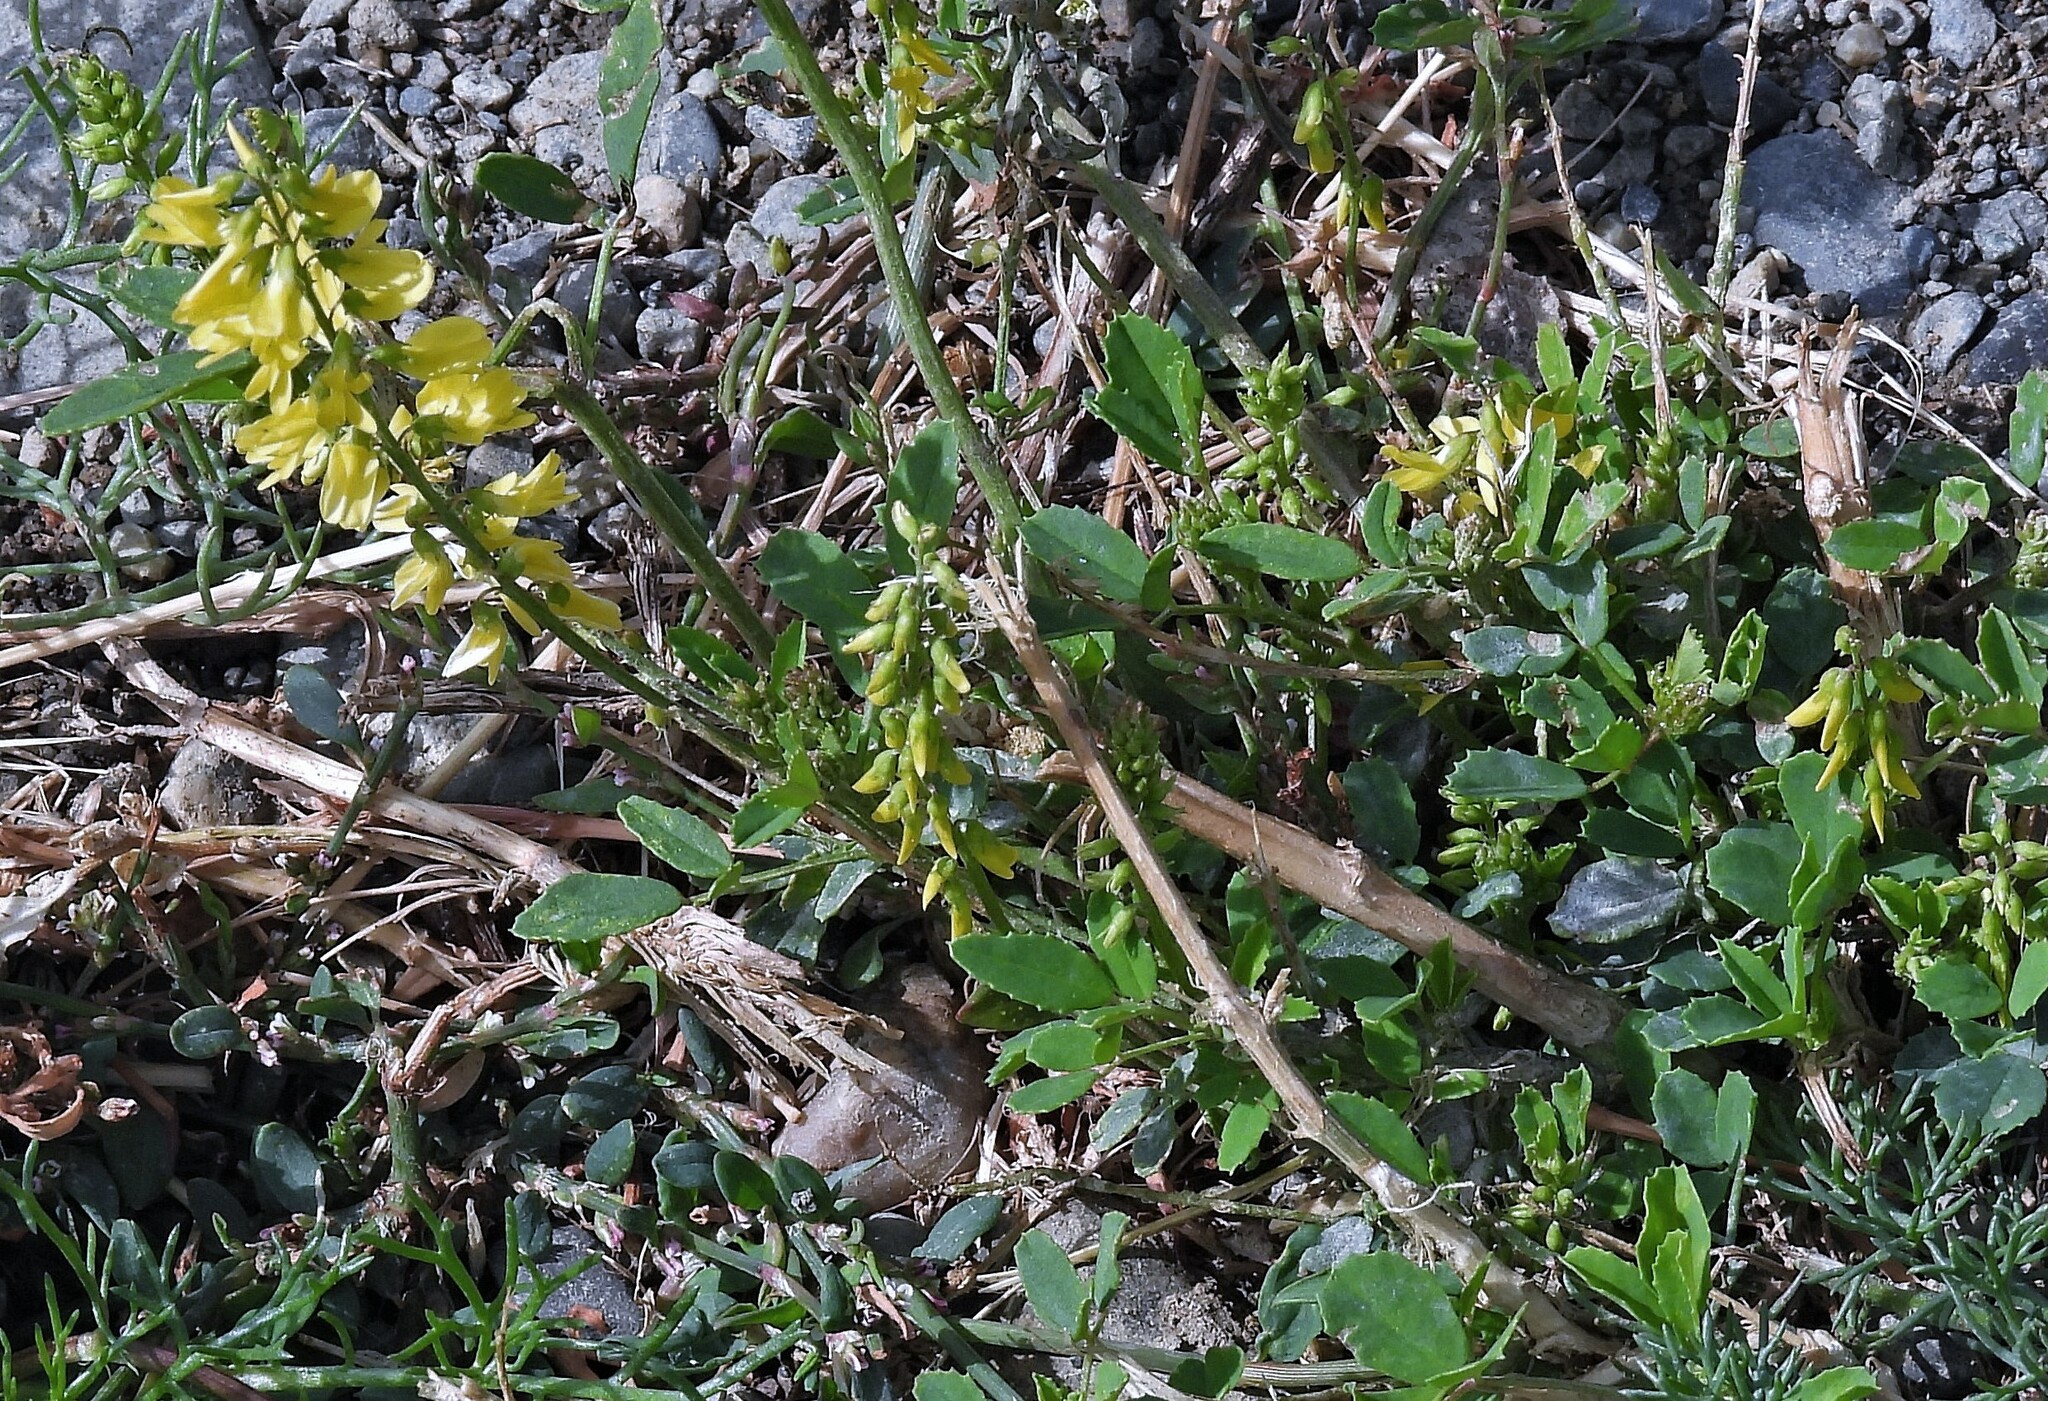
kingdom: Plantae
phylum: Tracheophyta
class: Magnoliopsida
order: Fabales
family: Fabaceae
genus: Melilotus
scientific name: Melilotus officinalis
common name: Sweetclover
